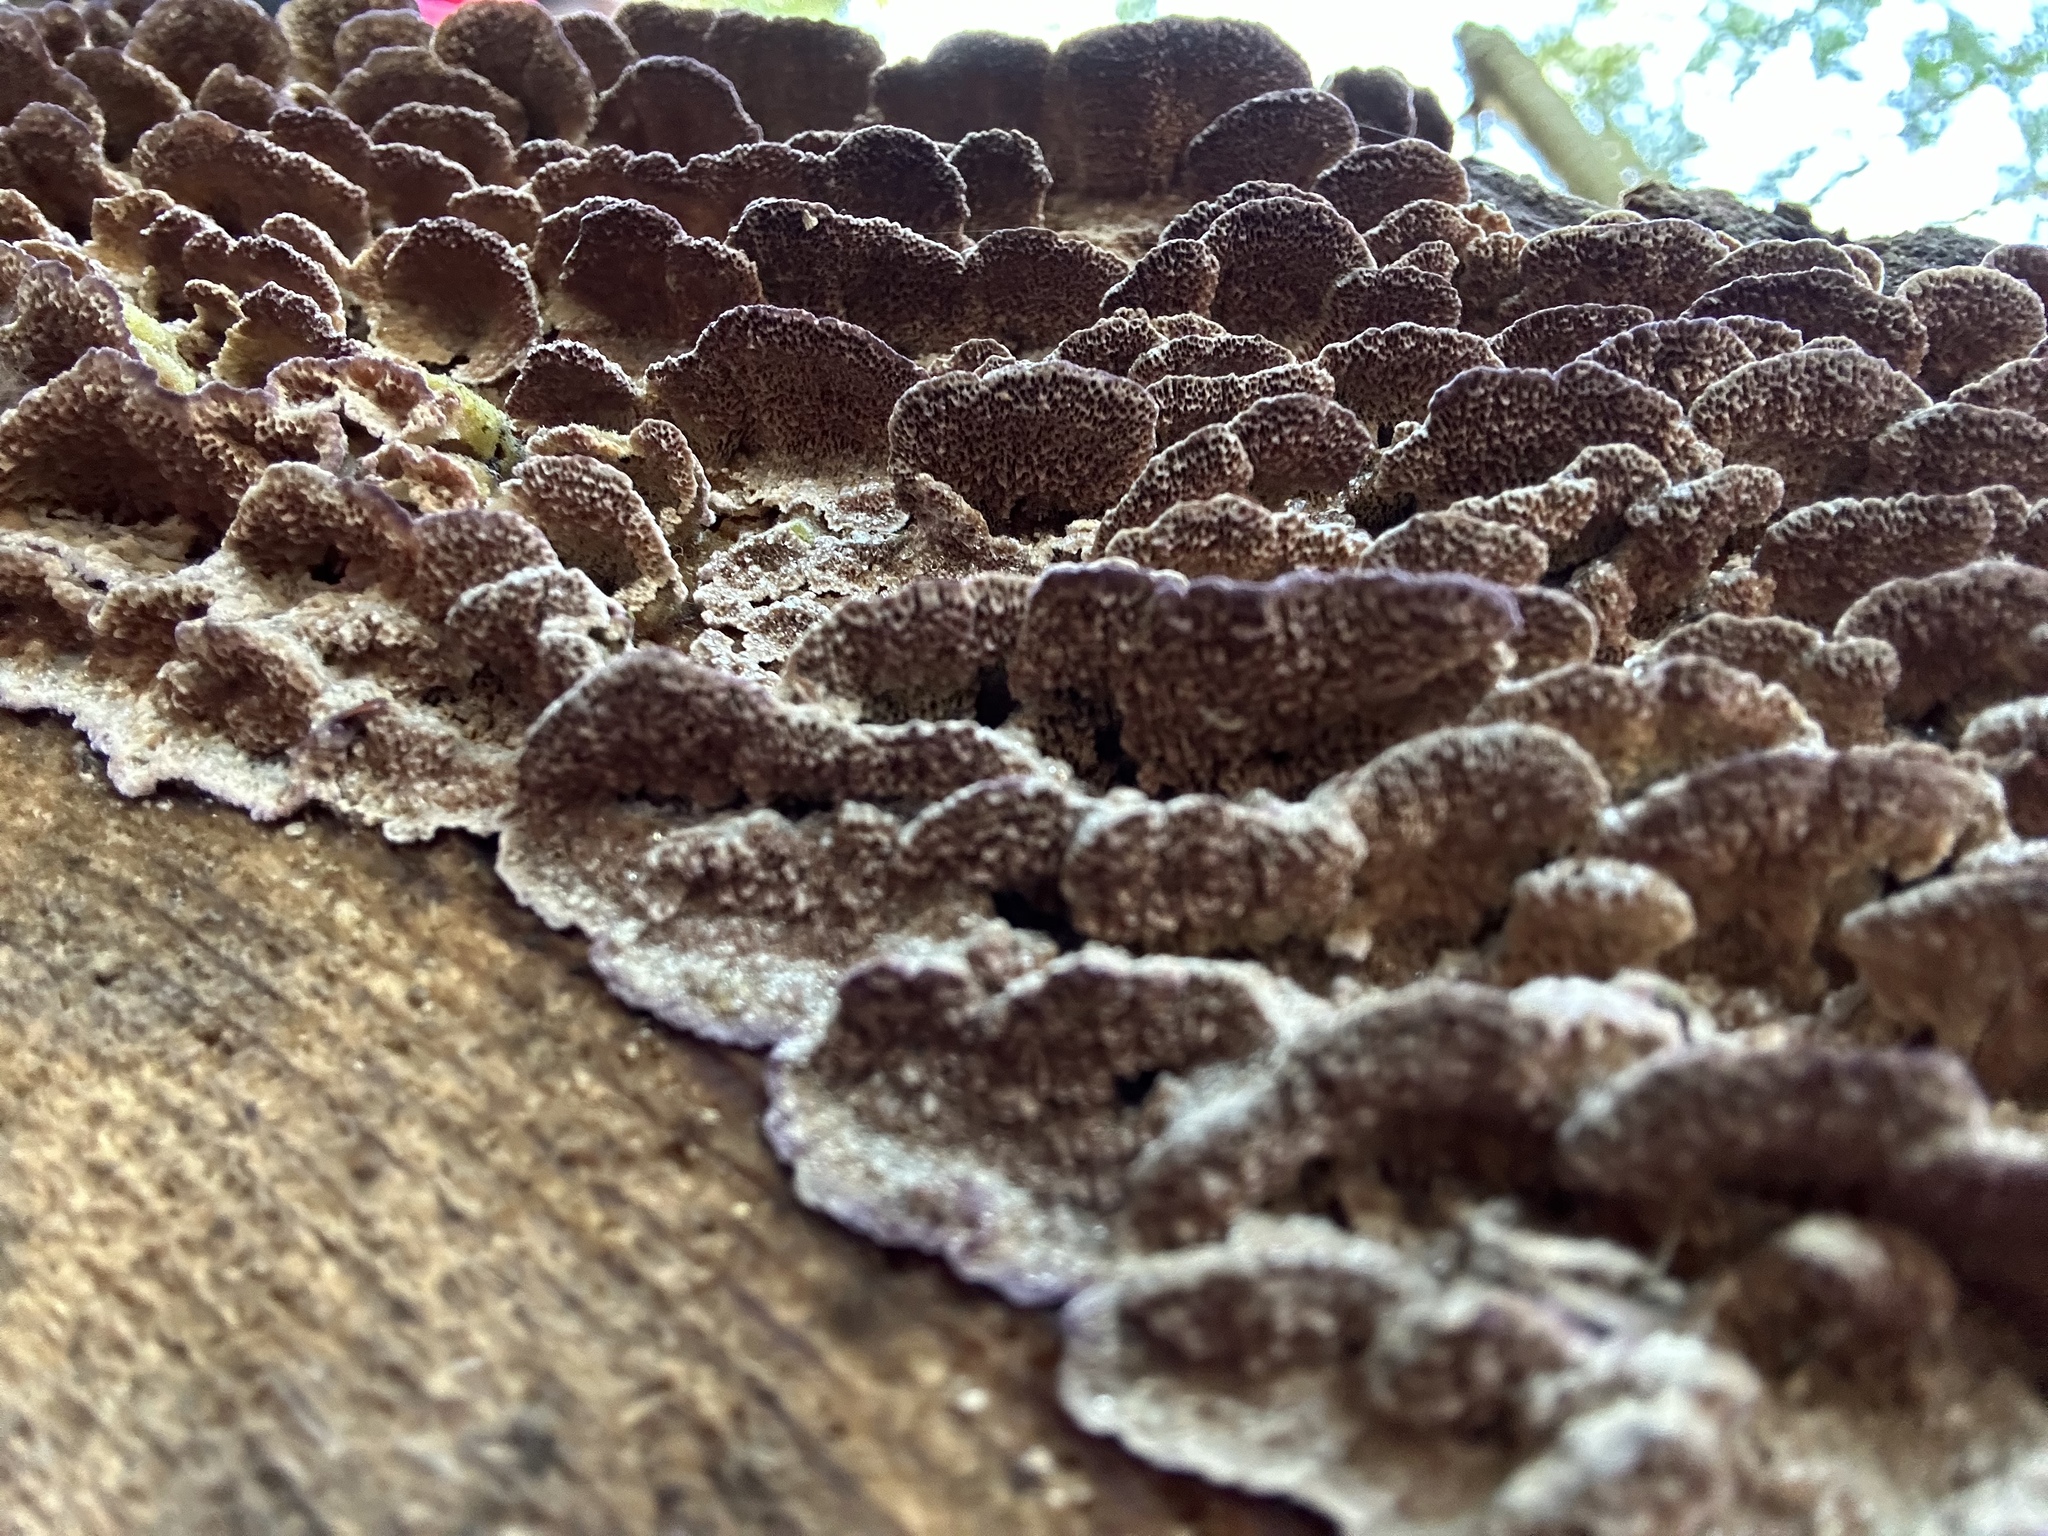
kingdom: Fungi
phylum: Basidiomycota
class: Agaricomycetes
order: Hymenochaetales
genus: Trichaptum
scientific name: Trichaptum abietinum
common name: Purplepore bracket
